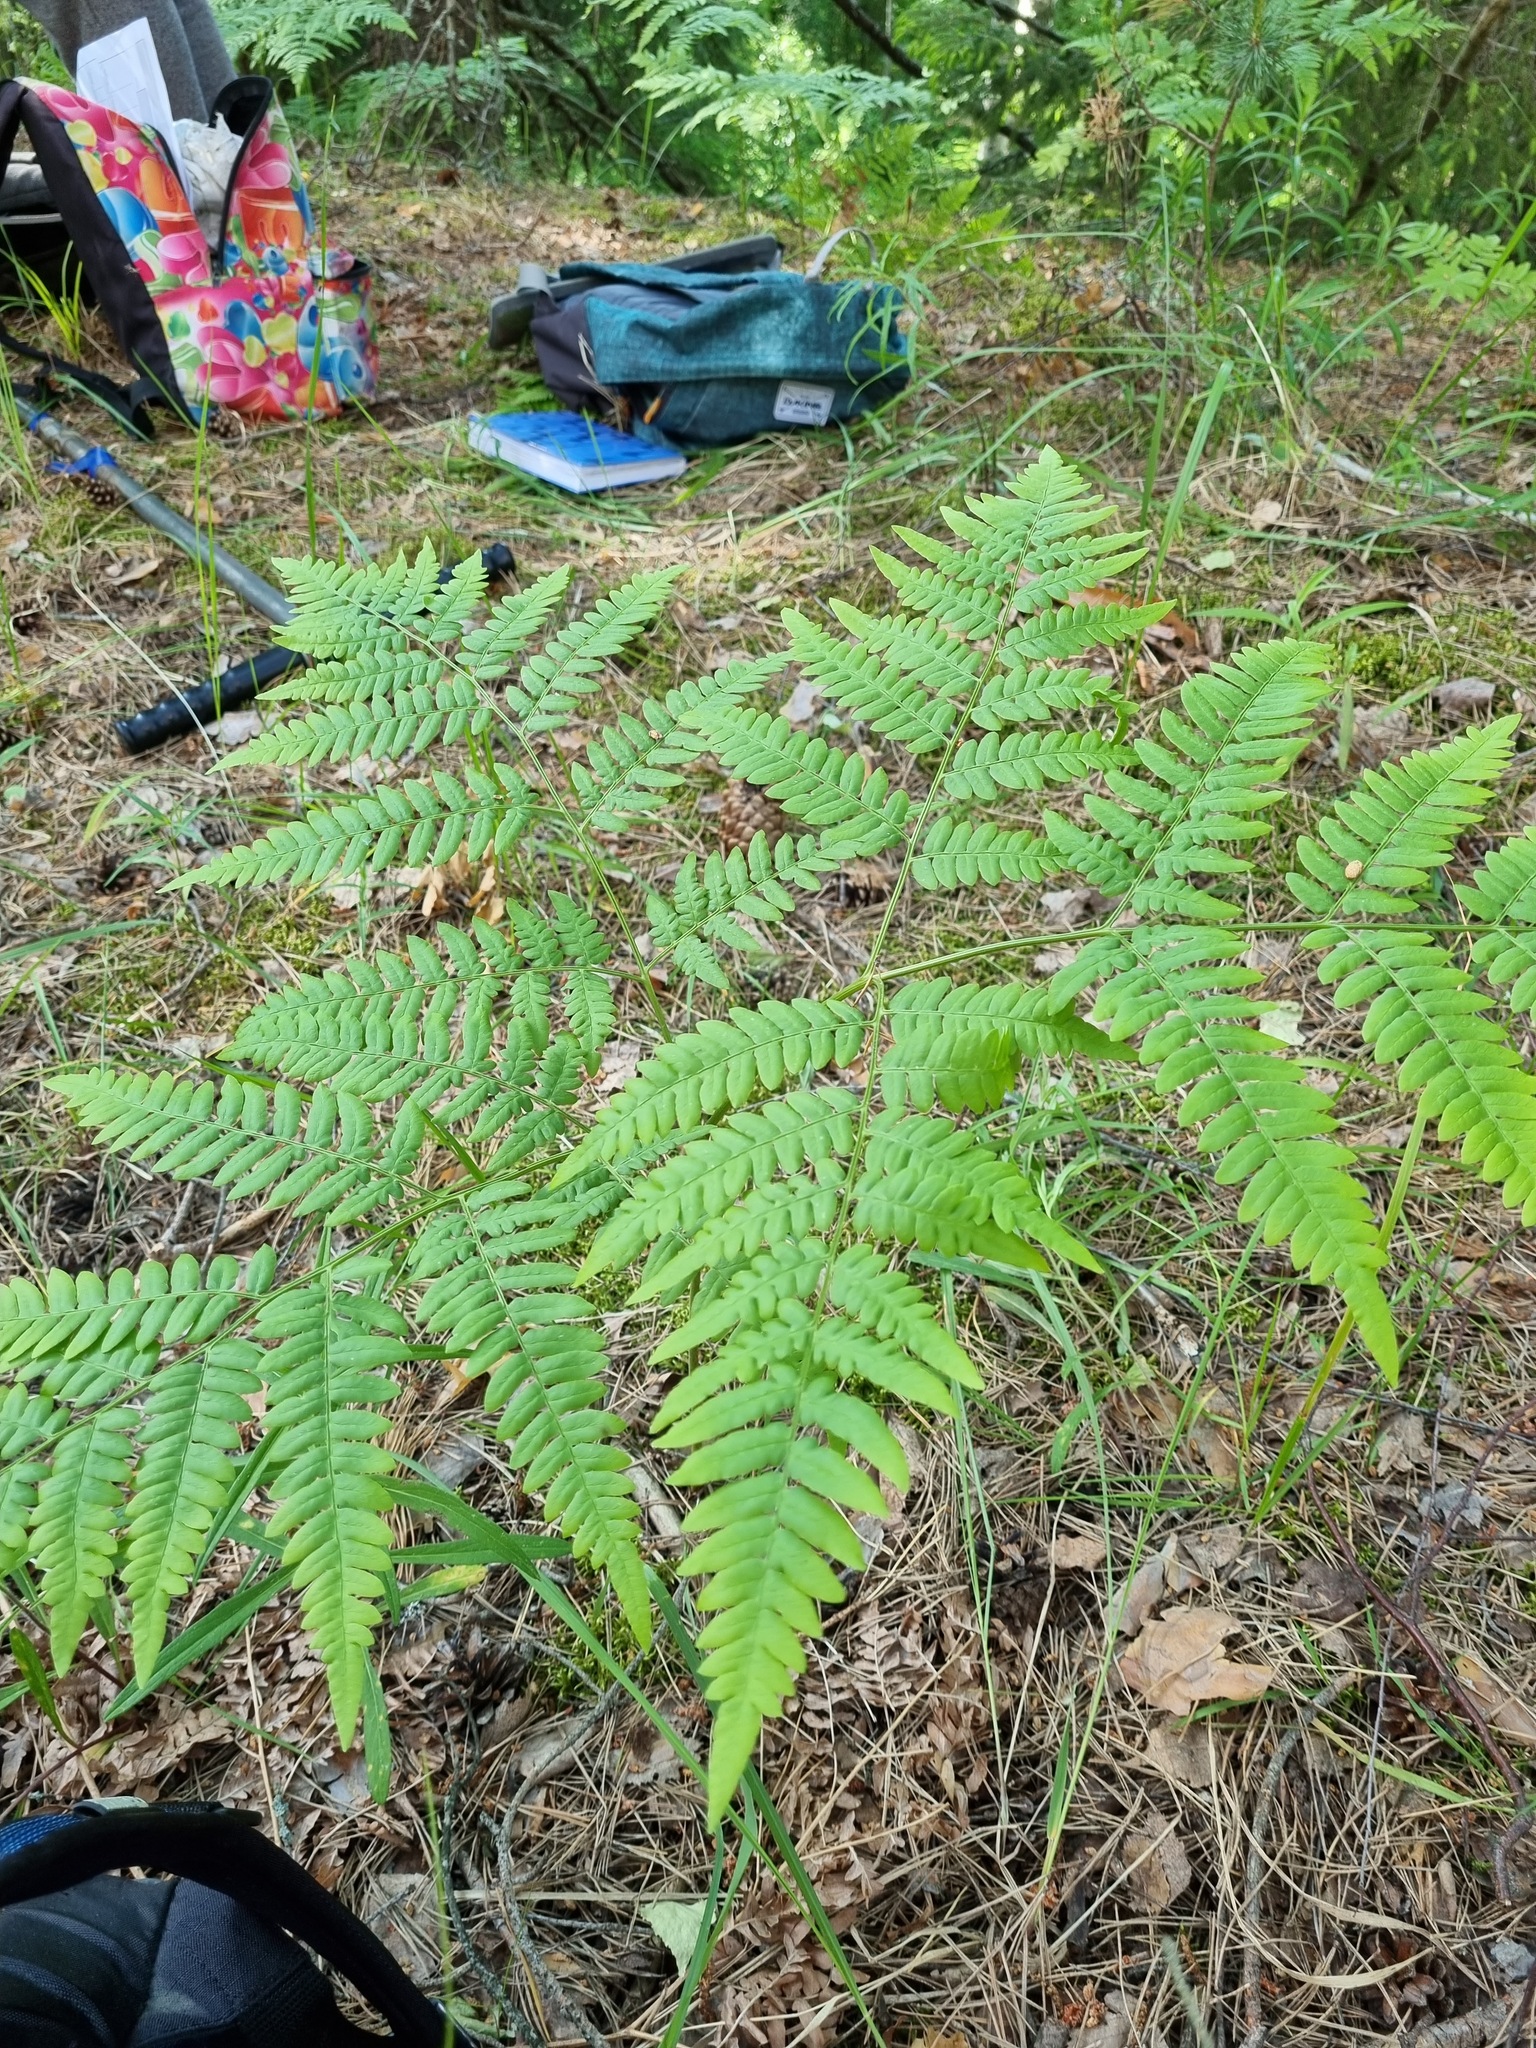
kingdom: Plantae
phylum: Tracheophyta
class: Polypodiopsida
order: Polypodiales
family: Dennstaedtiaceae
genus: Pteridium
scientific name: Pteridium aquilinum
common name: Bracken
